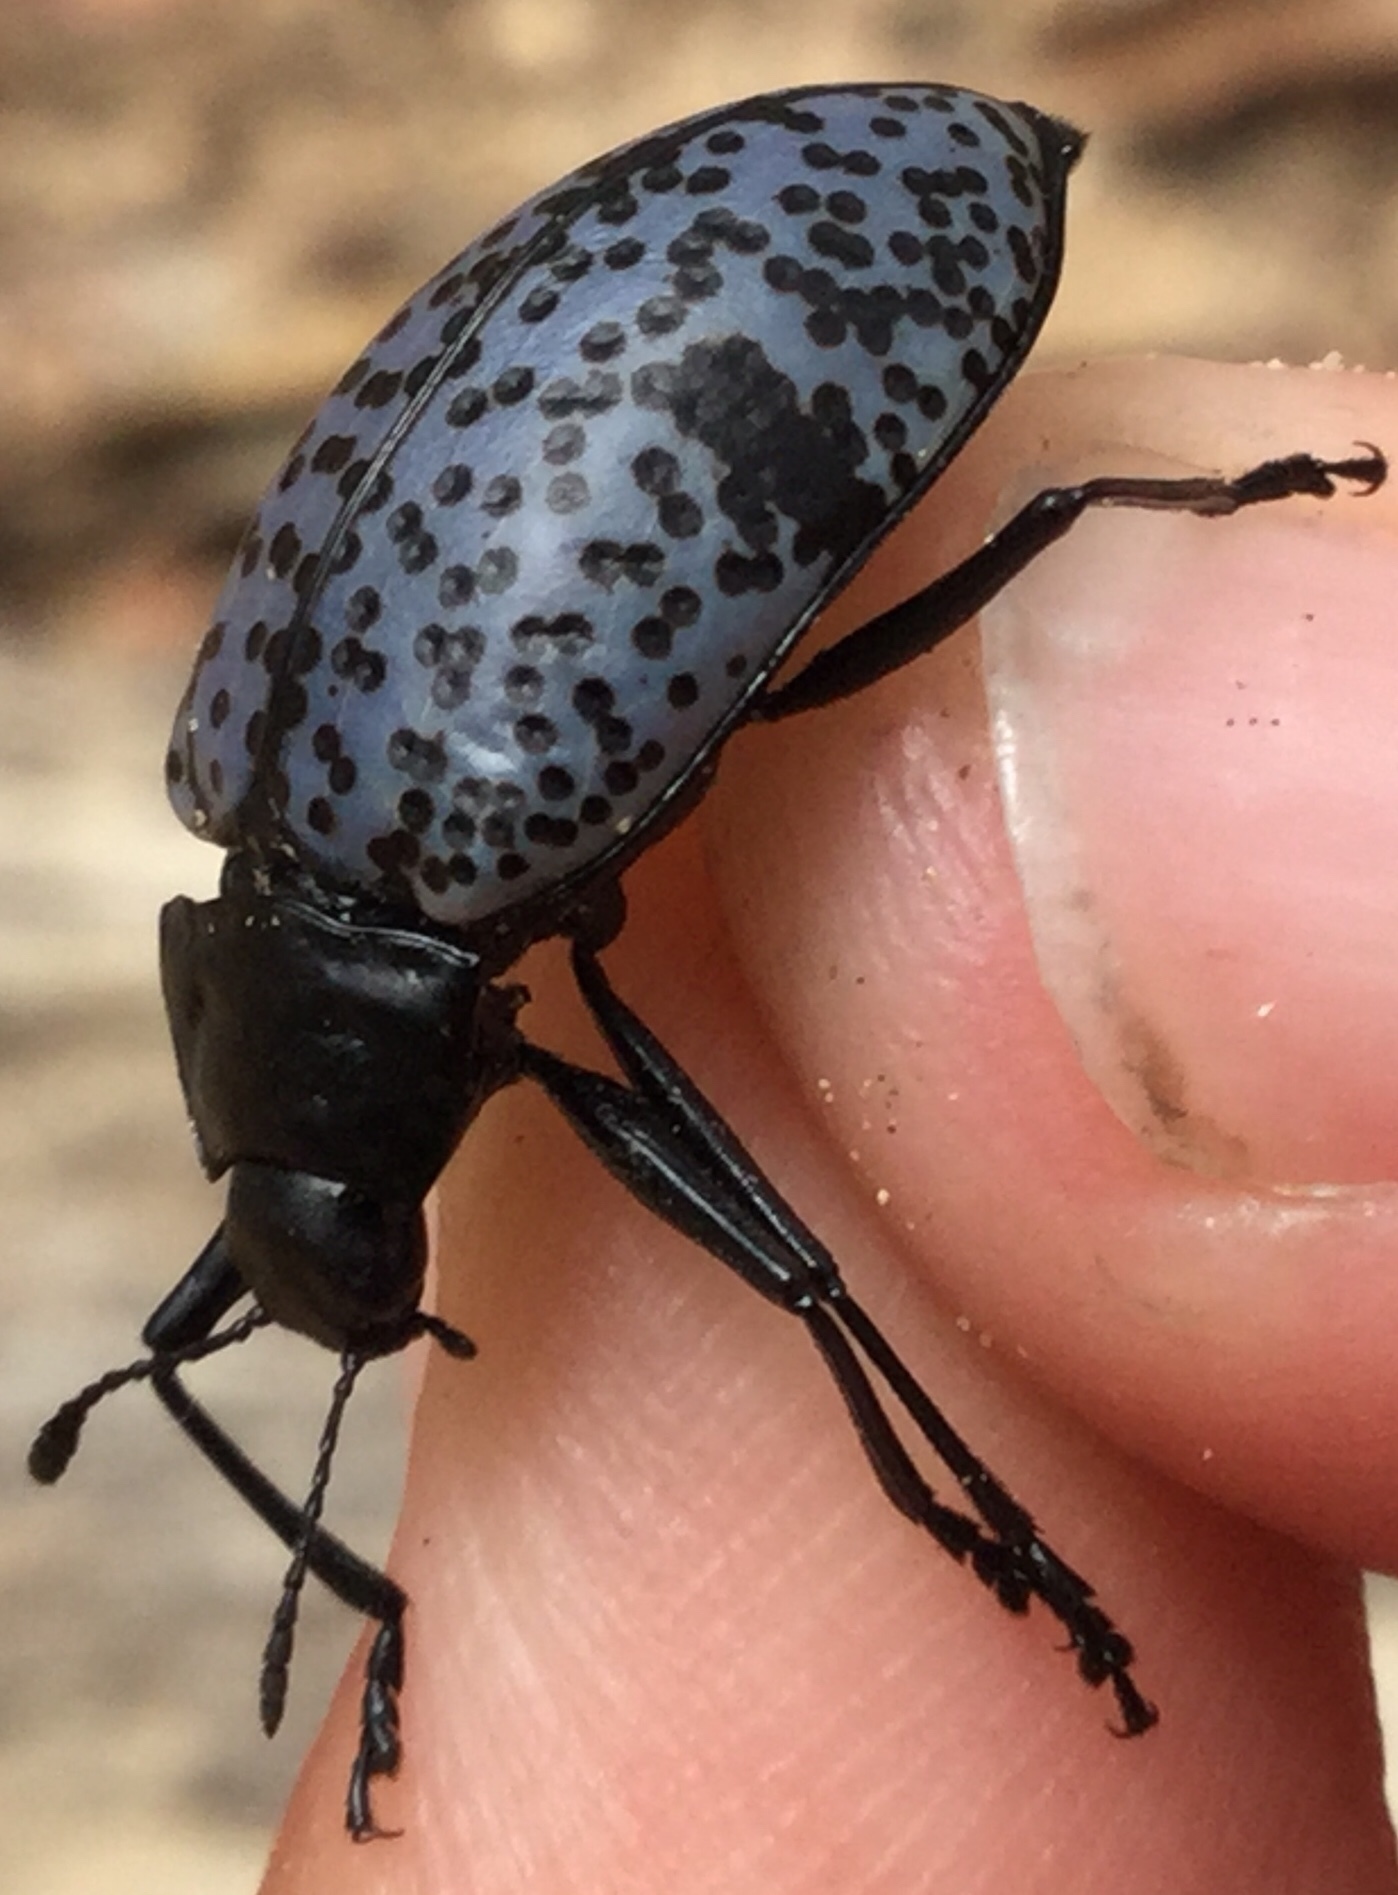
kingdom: Animalia
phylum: Arthropoda
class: Insecta
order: Coleoptera
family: Erotylidae
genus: Gibbifer
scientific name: Gibbifer californicus
